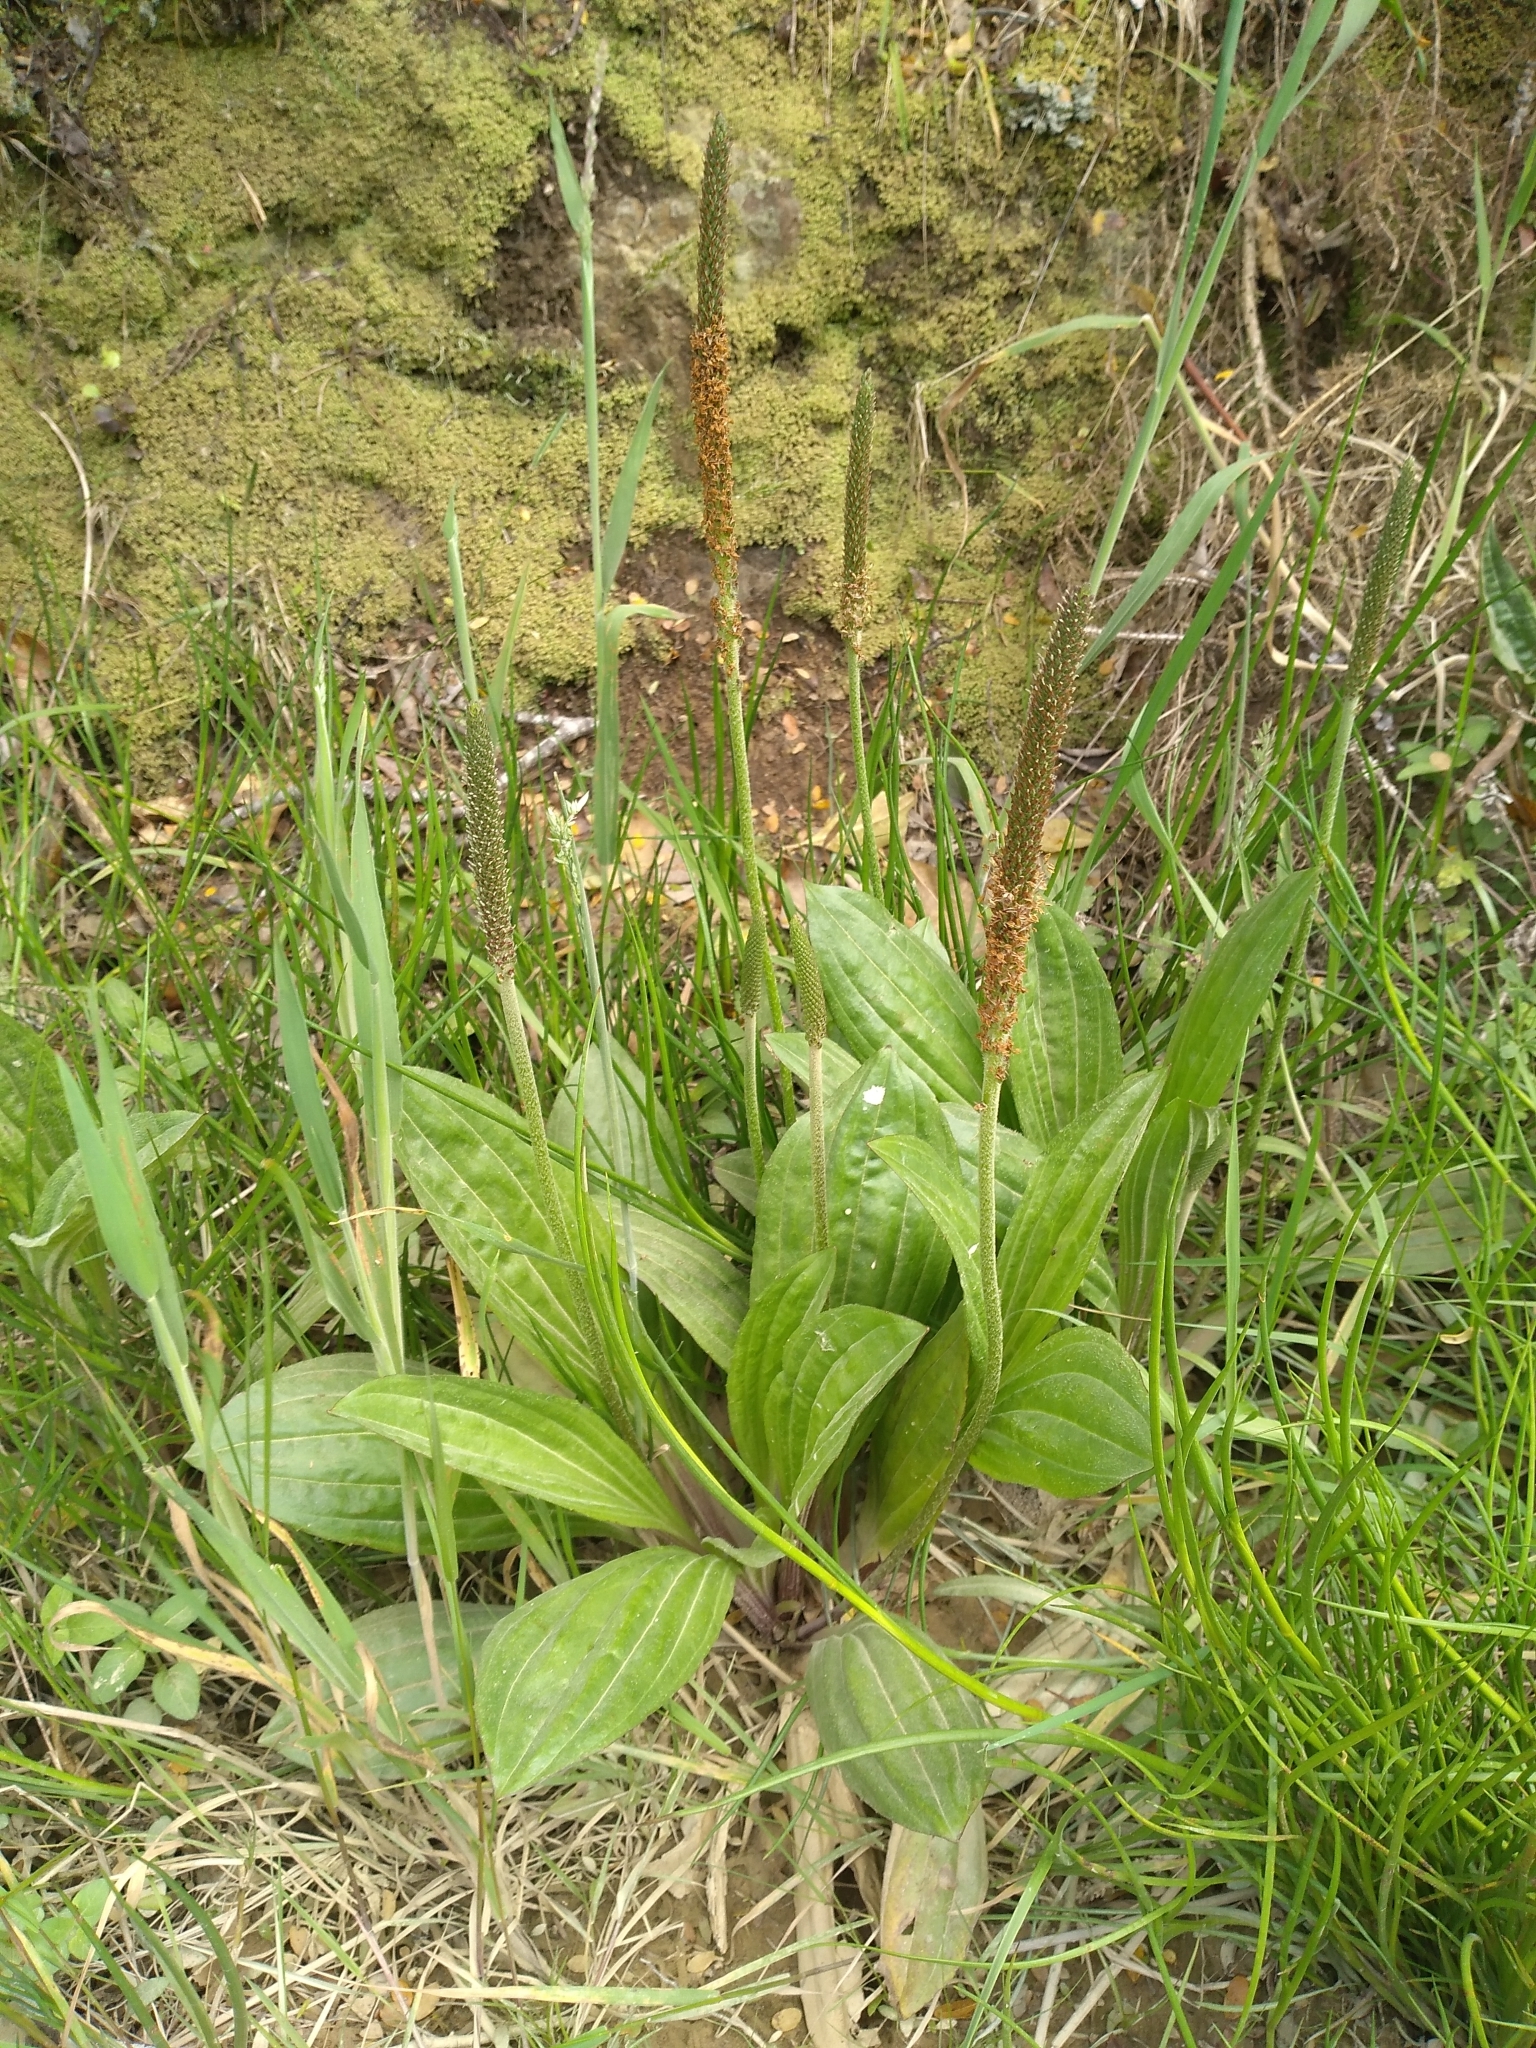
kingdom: Plantae
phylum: Tracheophyta
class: Magnoliopsida
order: Lamiales
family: Plantaginaceae
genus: Plantago
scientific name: Plantago australis
